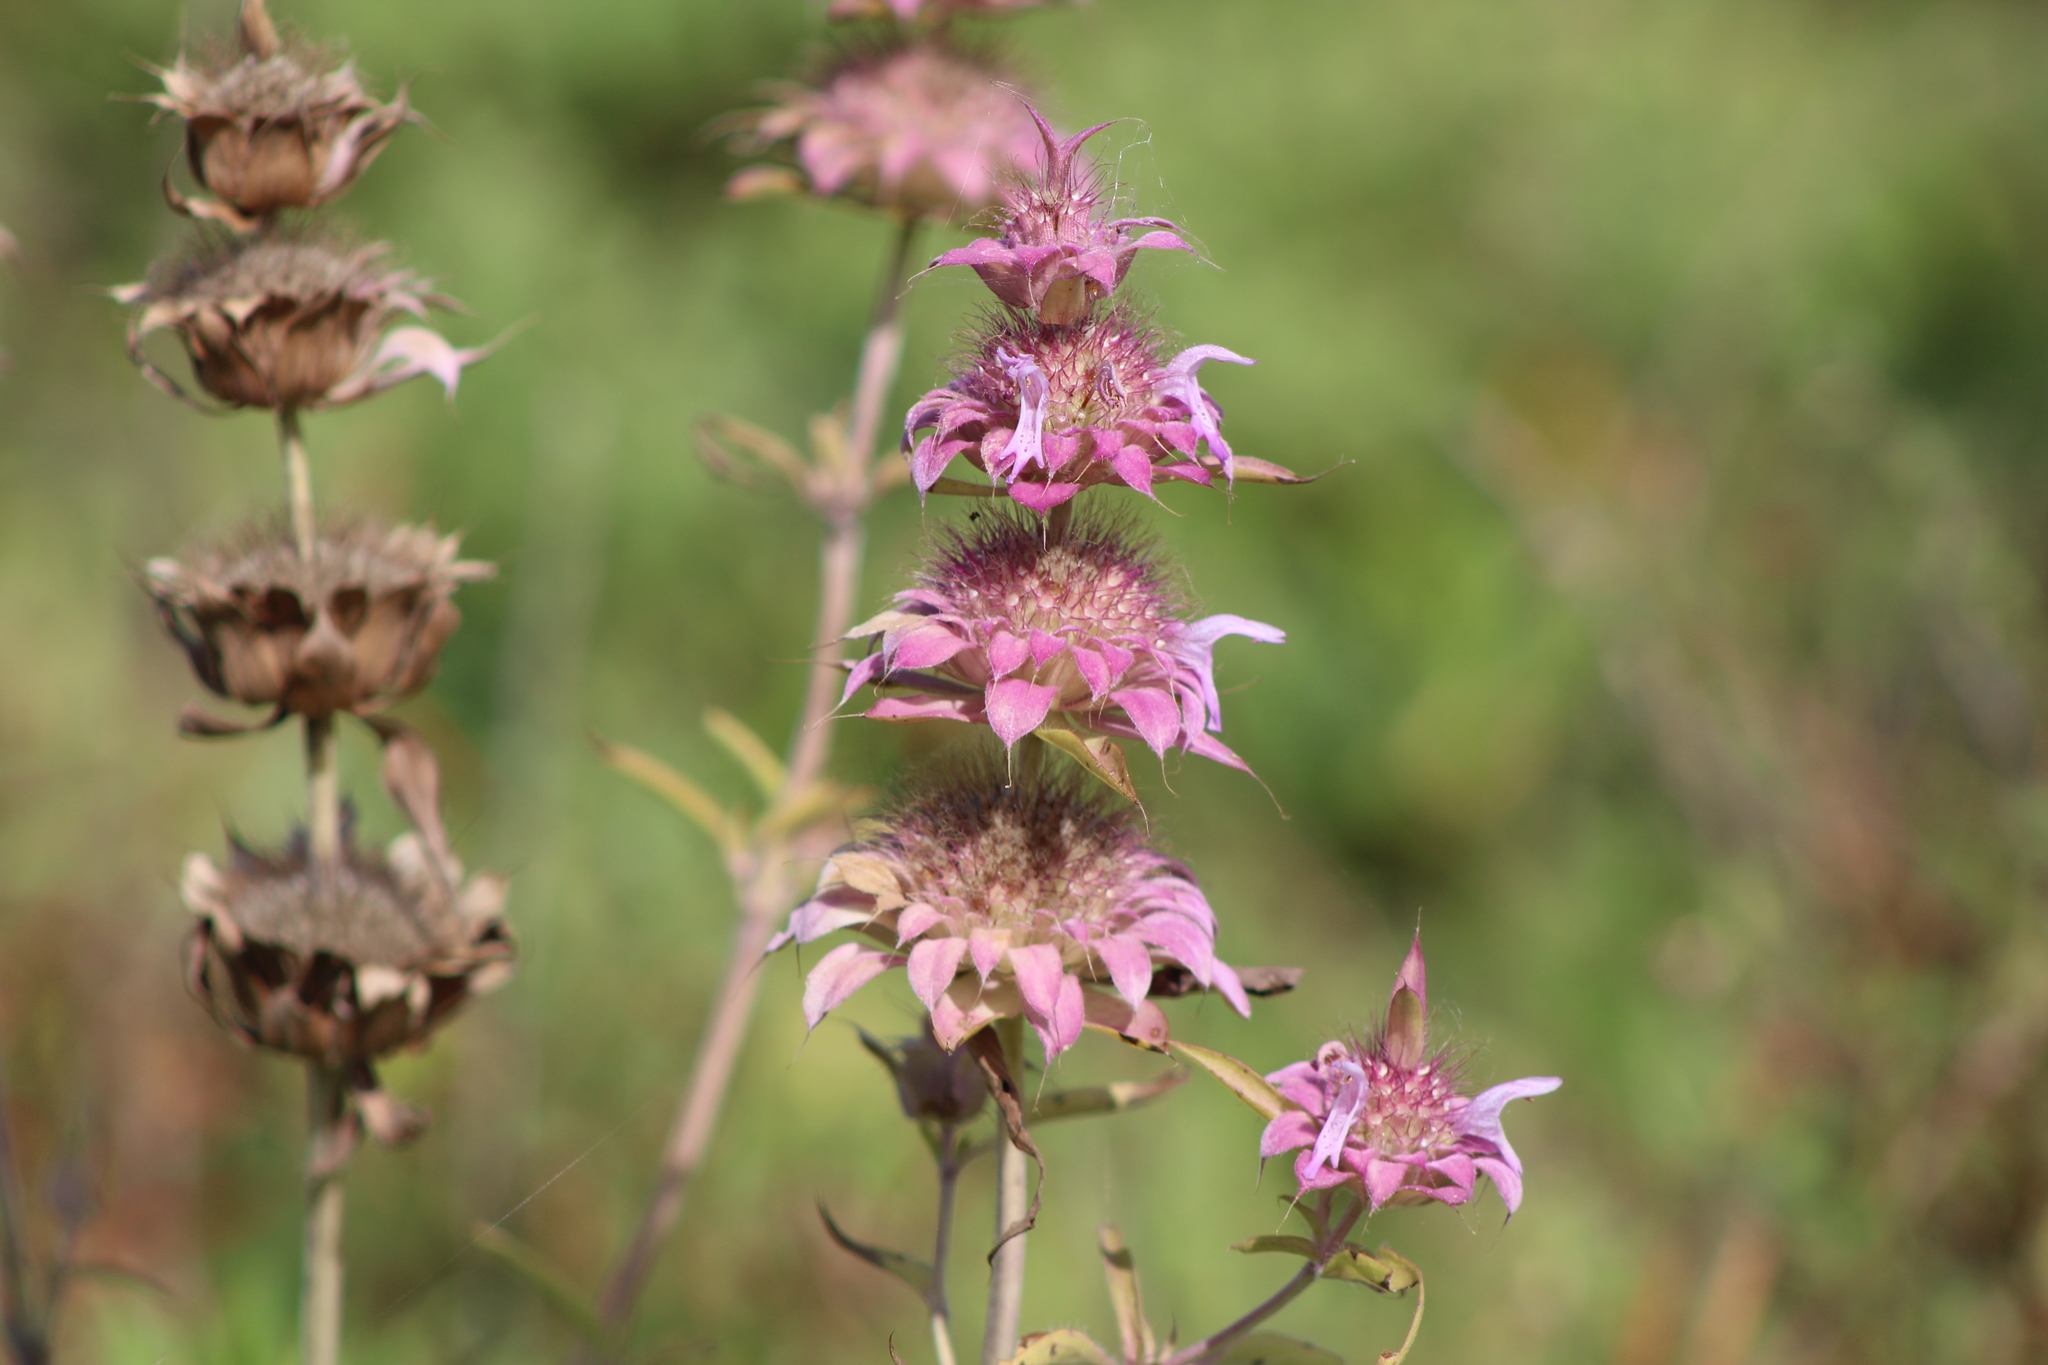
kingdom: Plantae
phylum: Tracheophyta
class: Magnoliopsida
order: Lamiales
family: Lamiaceae
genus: Monarda
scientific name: Monarda citriodora
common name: Lemon beebalm
